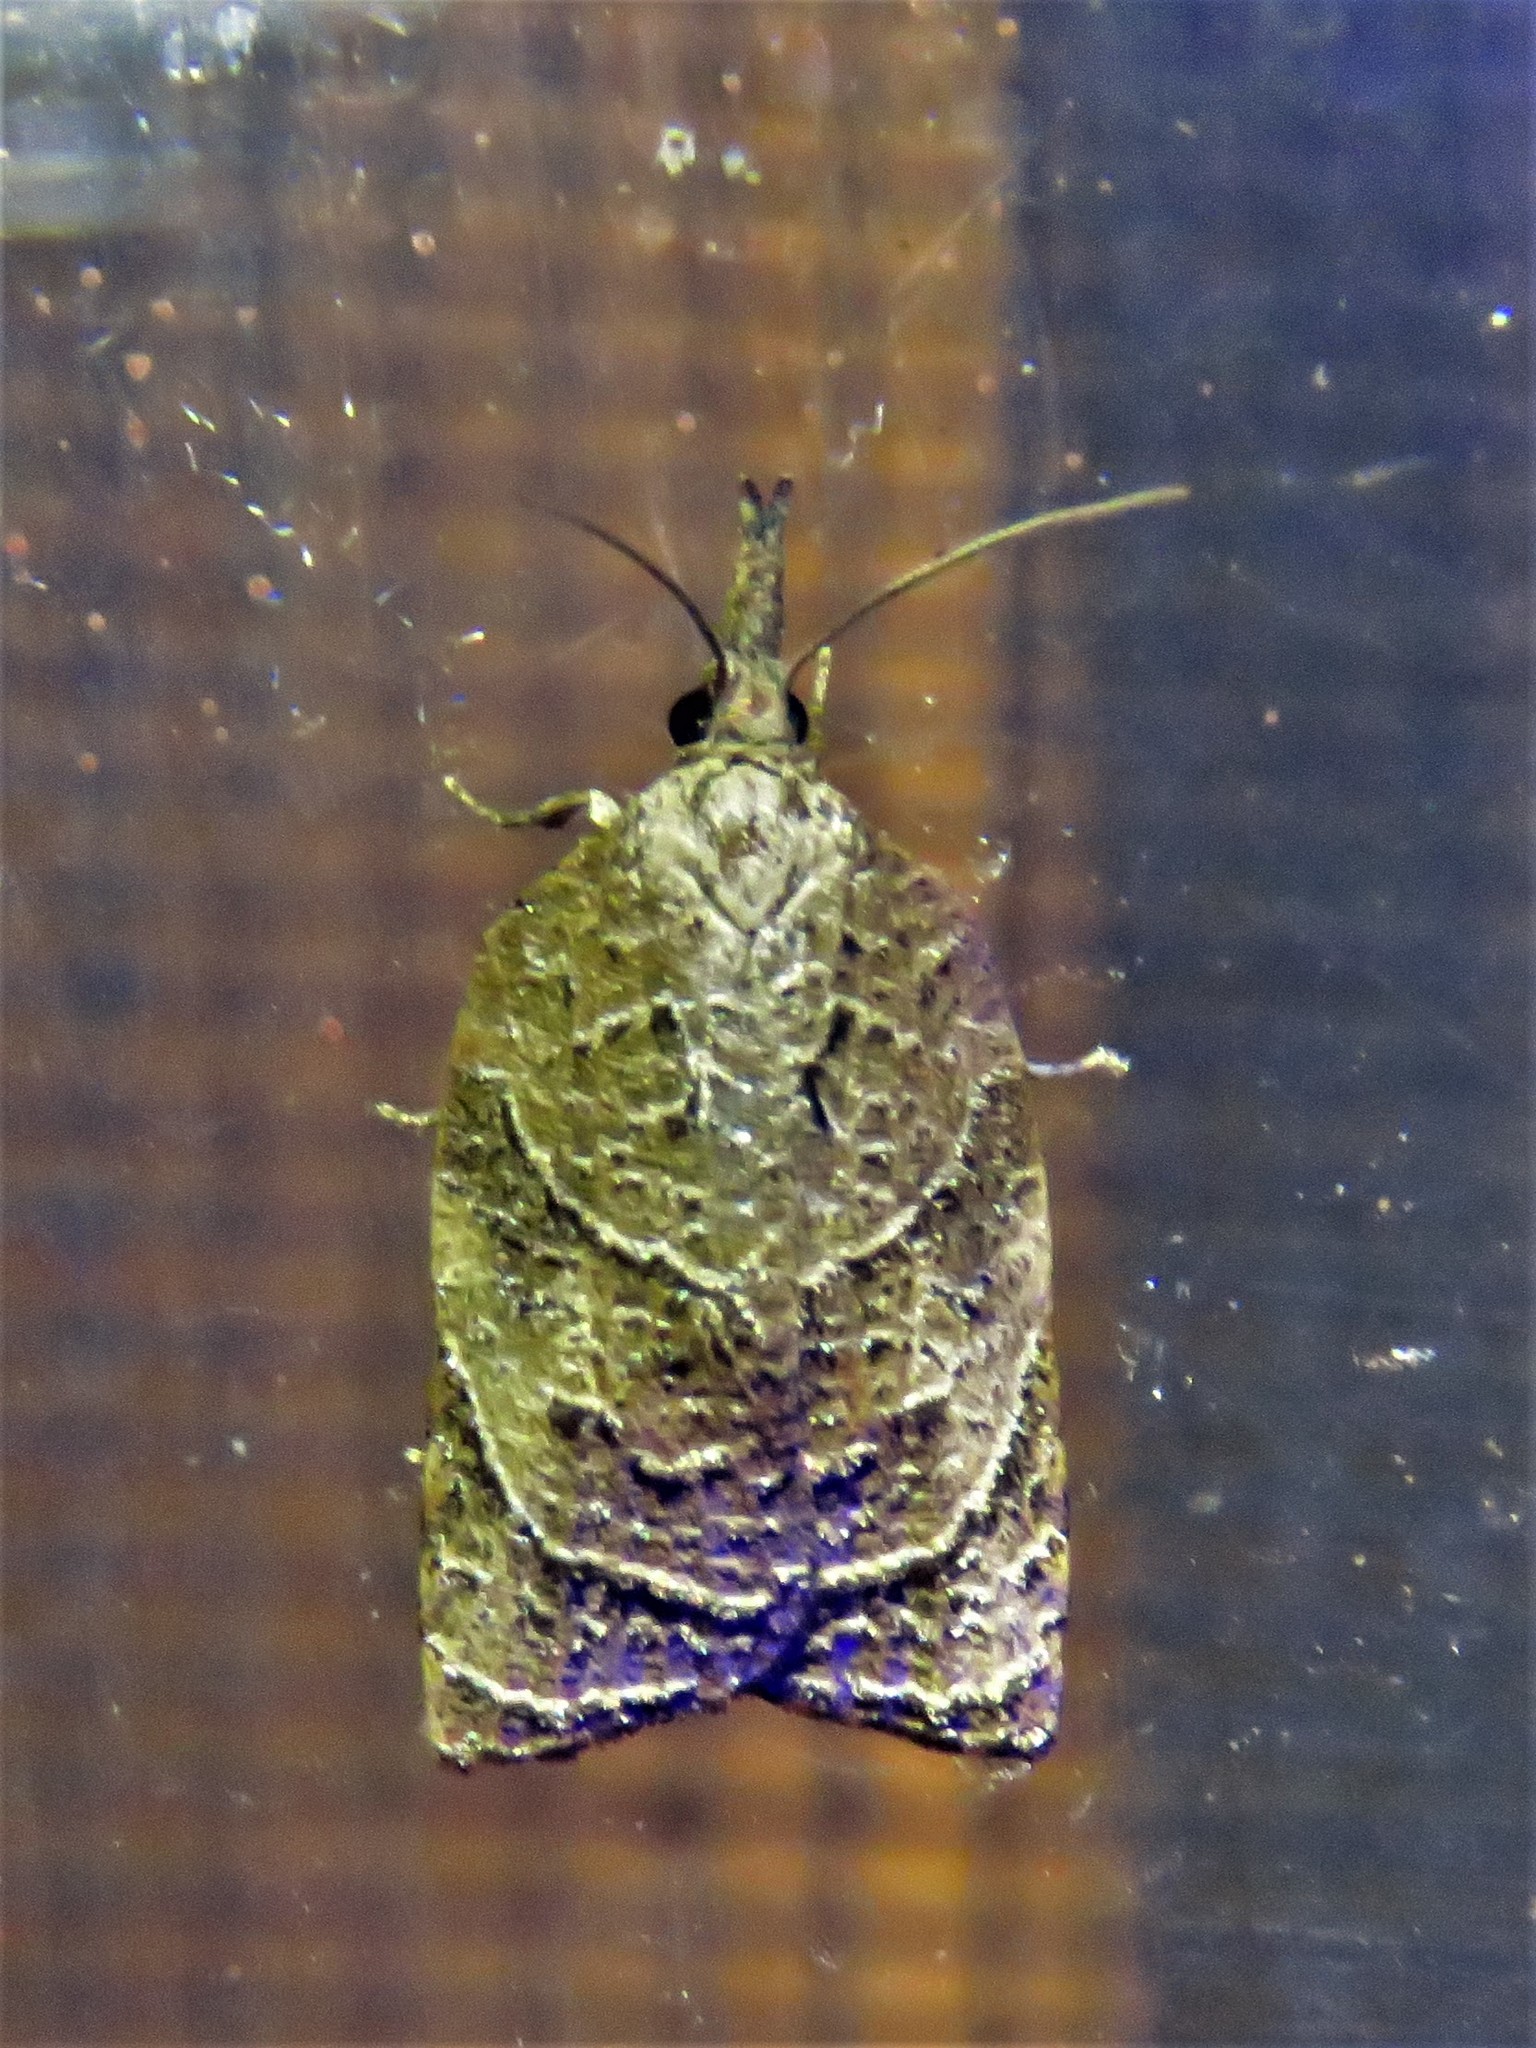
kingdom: Animalia
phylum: Arthropoda
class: Insecta
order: Lepidoptera
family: Tortricidae
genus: Platynota
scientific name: Platynota rostrana
